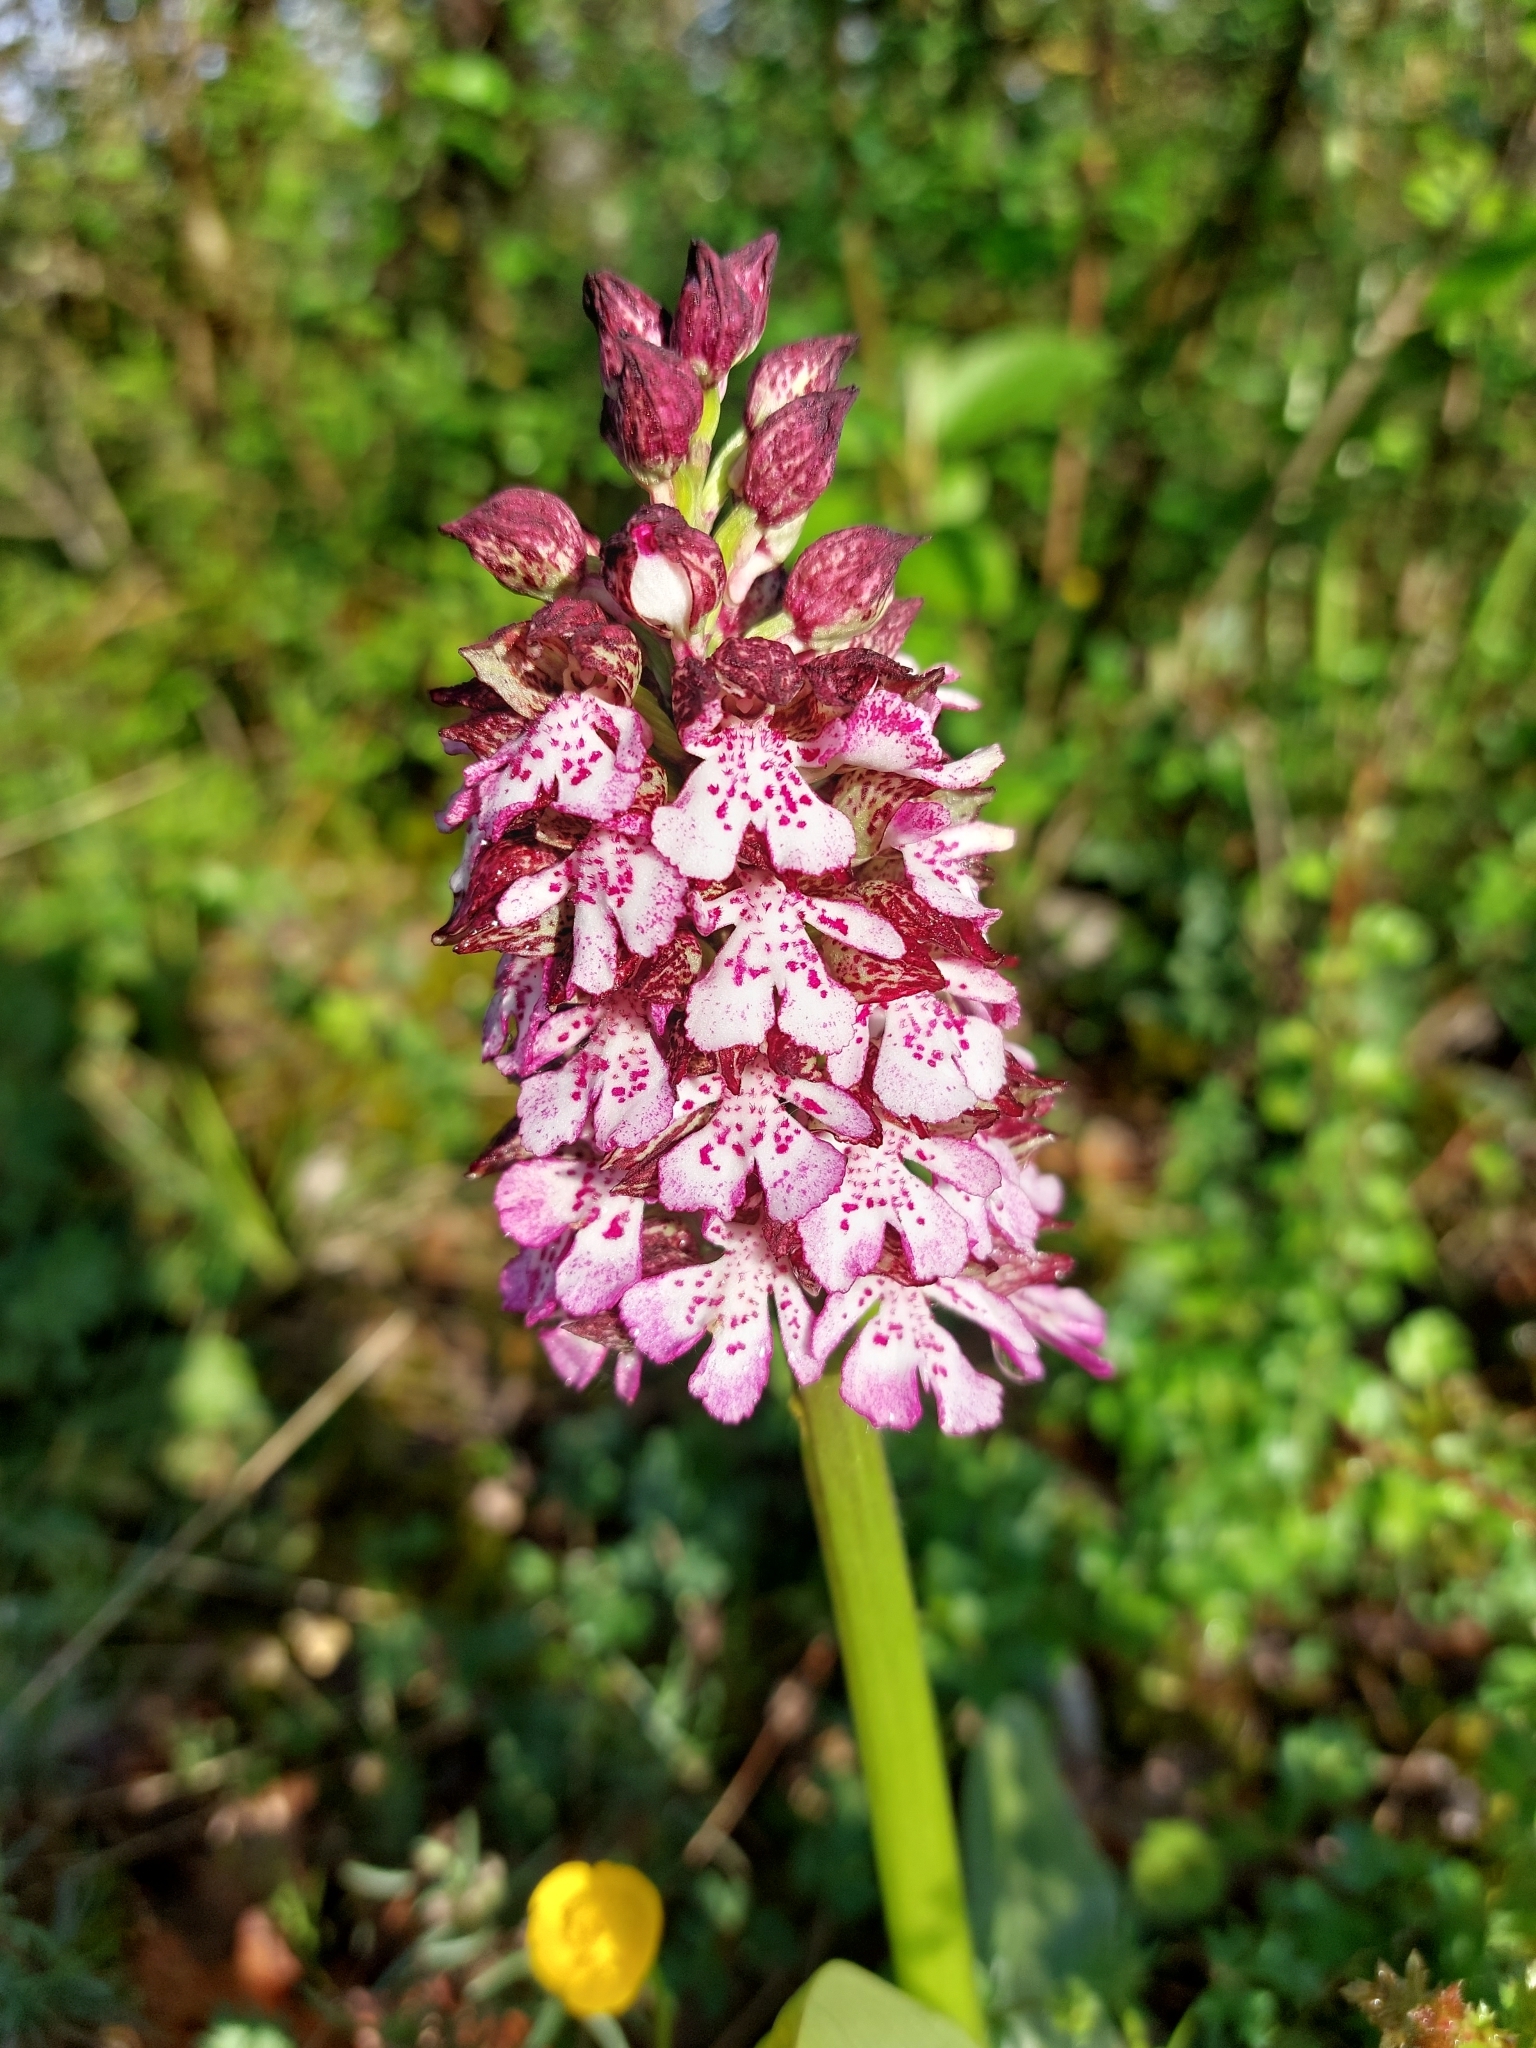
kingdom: Plantae
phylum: Tracheophyta
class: Liliopsida
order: Asparagales
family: Orchidaceae
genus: Orchis
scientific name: Orchis purpurea
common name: Lady orchid
